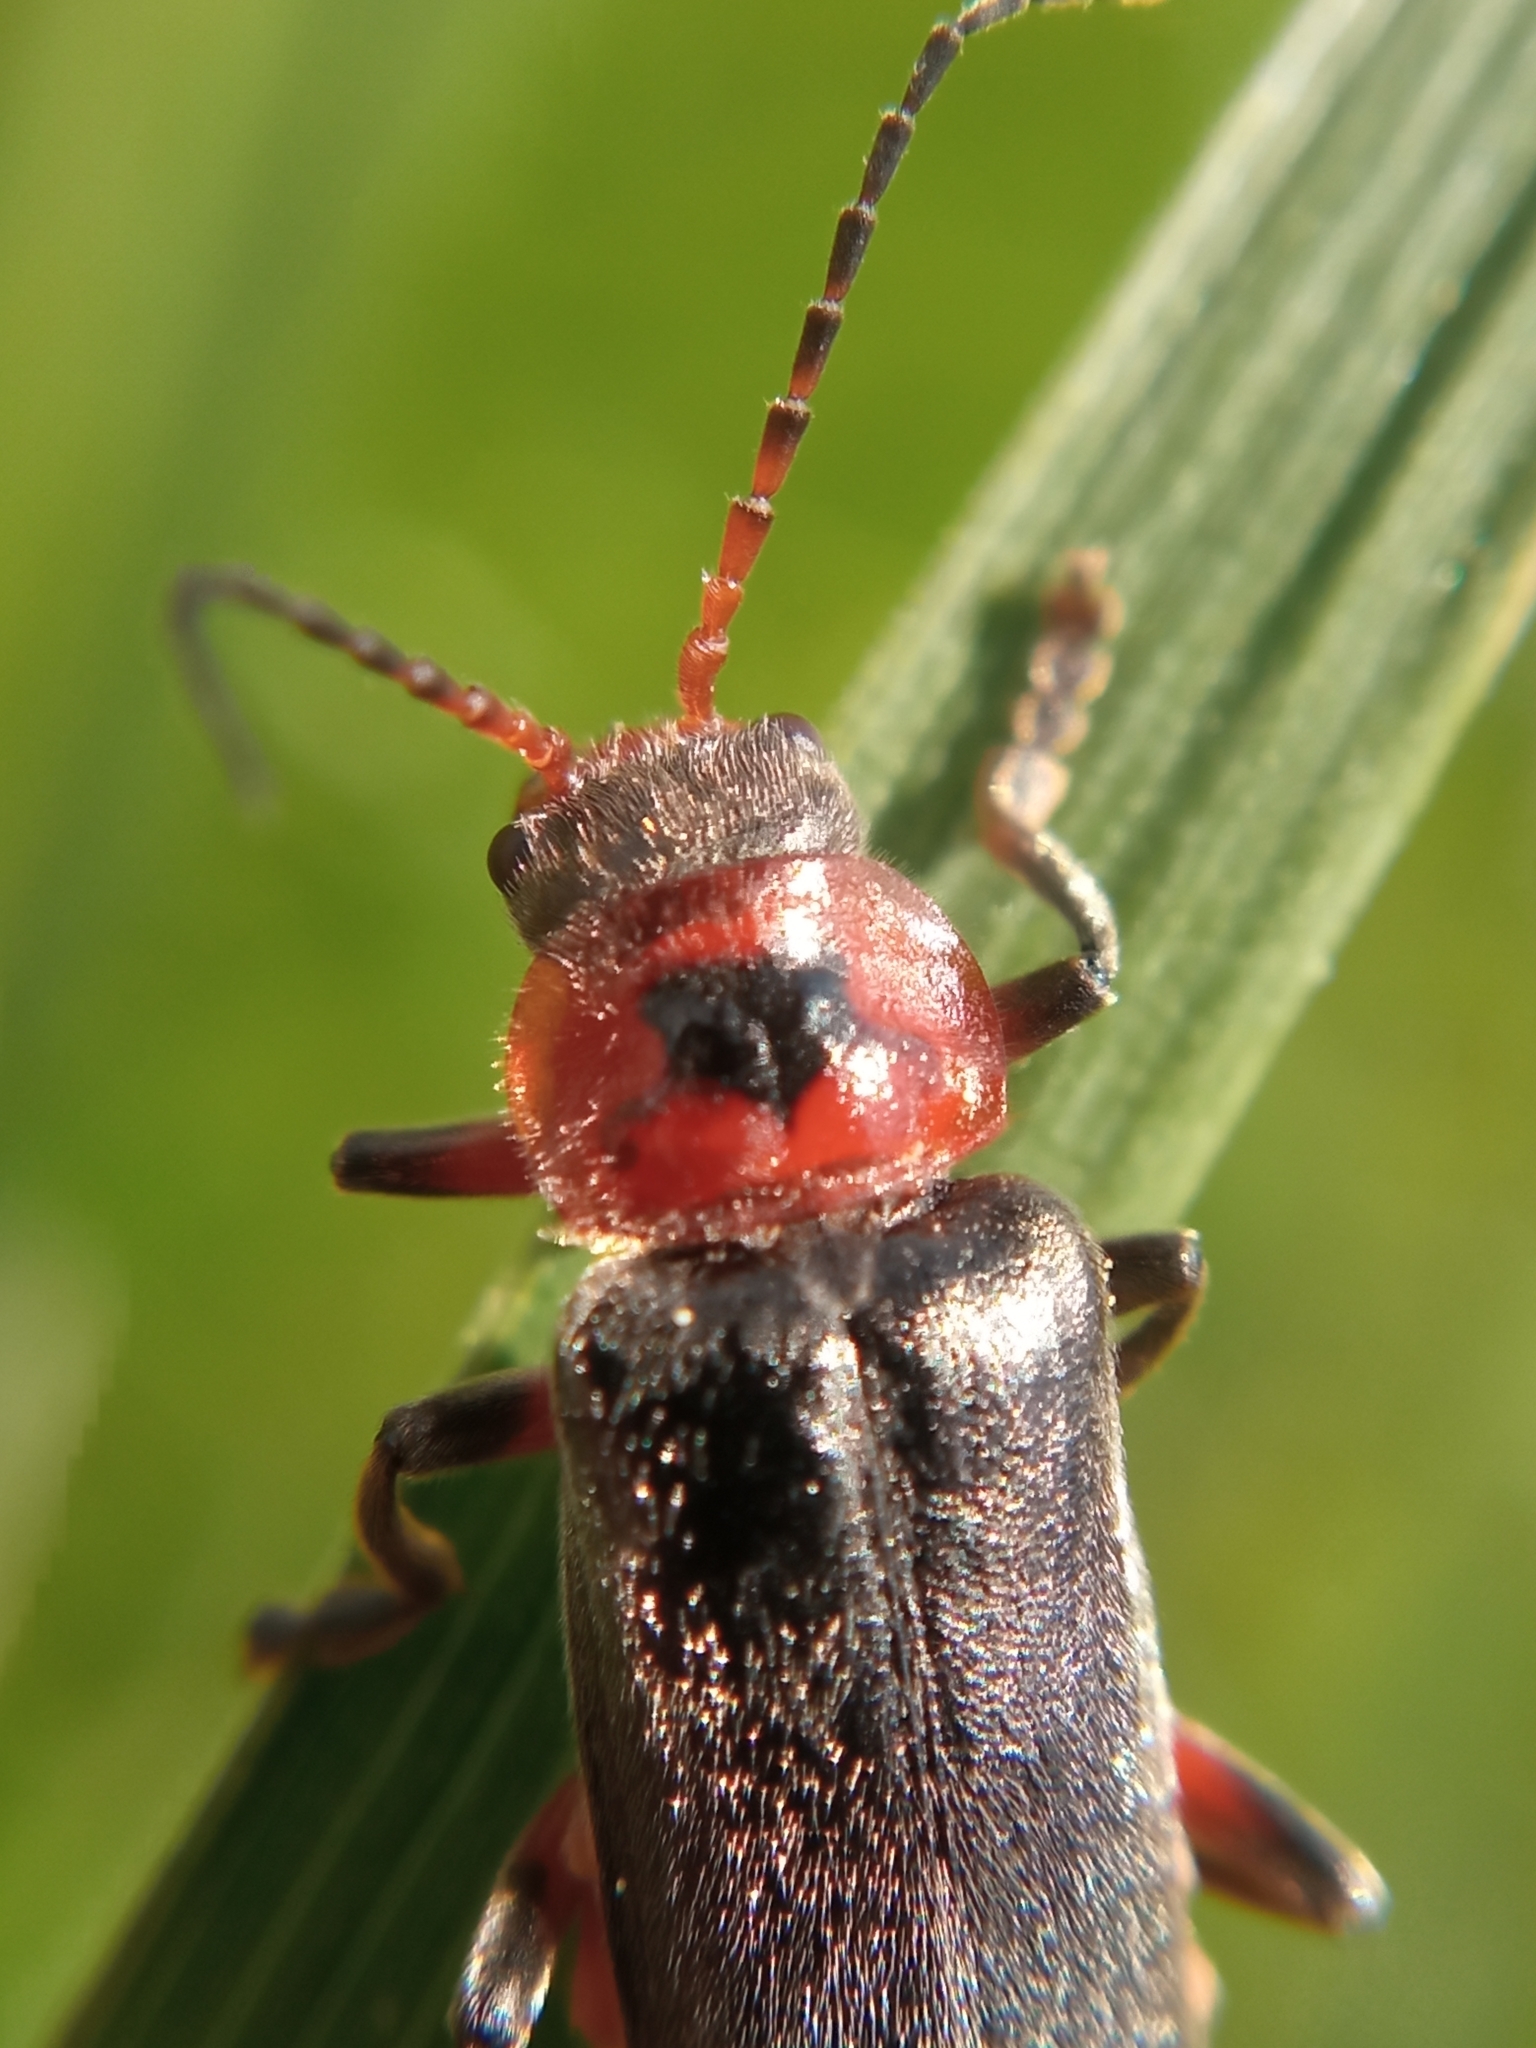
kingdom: Animalia
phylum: Arthropoda
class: Insecta
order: Coleoptera
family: Cantharidae
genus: Cantharis
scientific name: Cantharis rustica
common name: Soldier beetle
